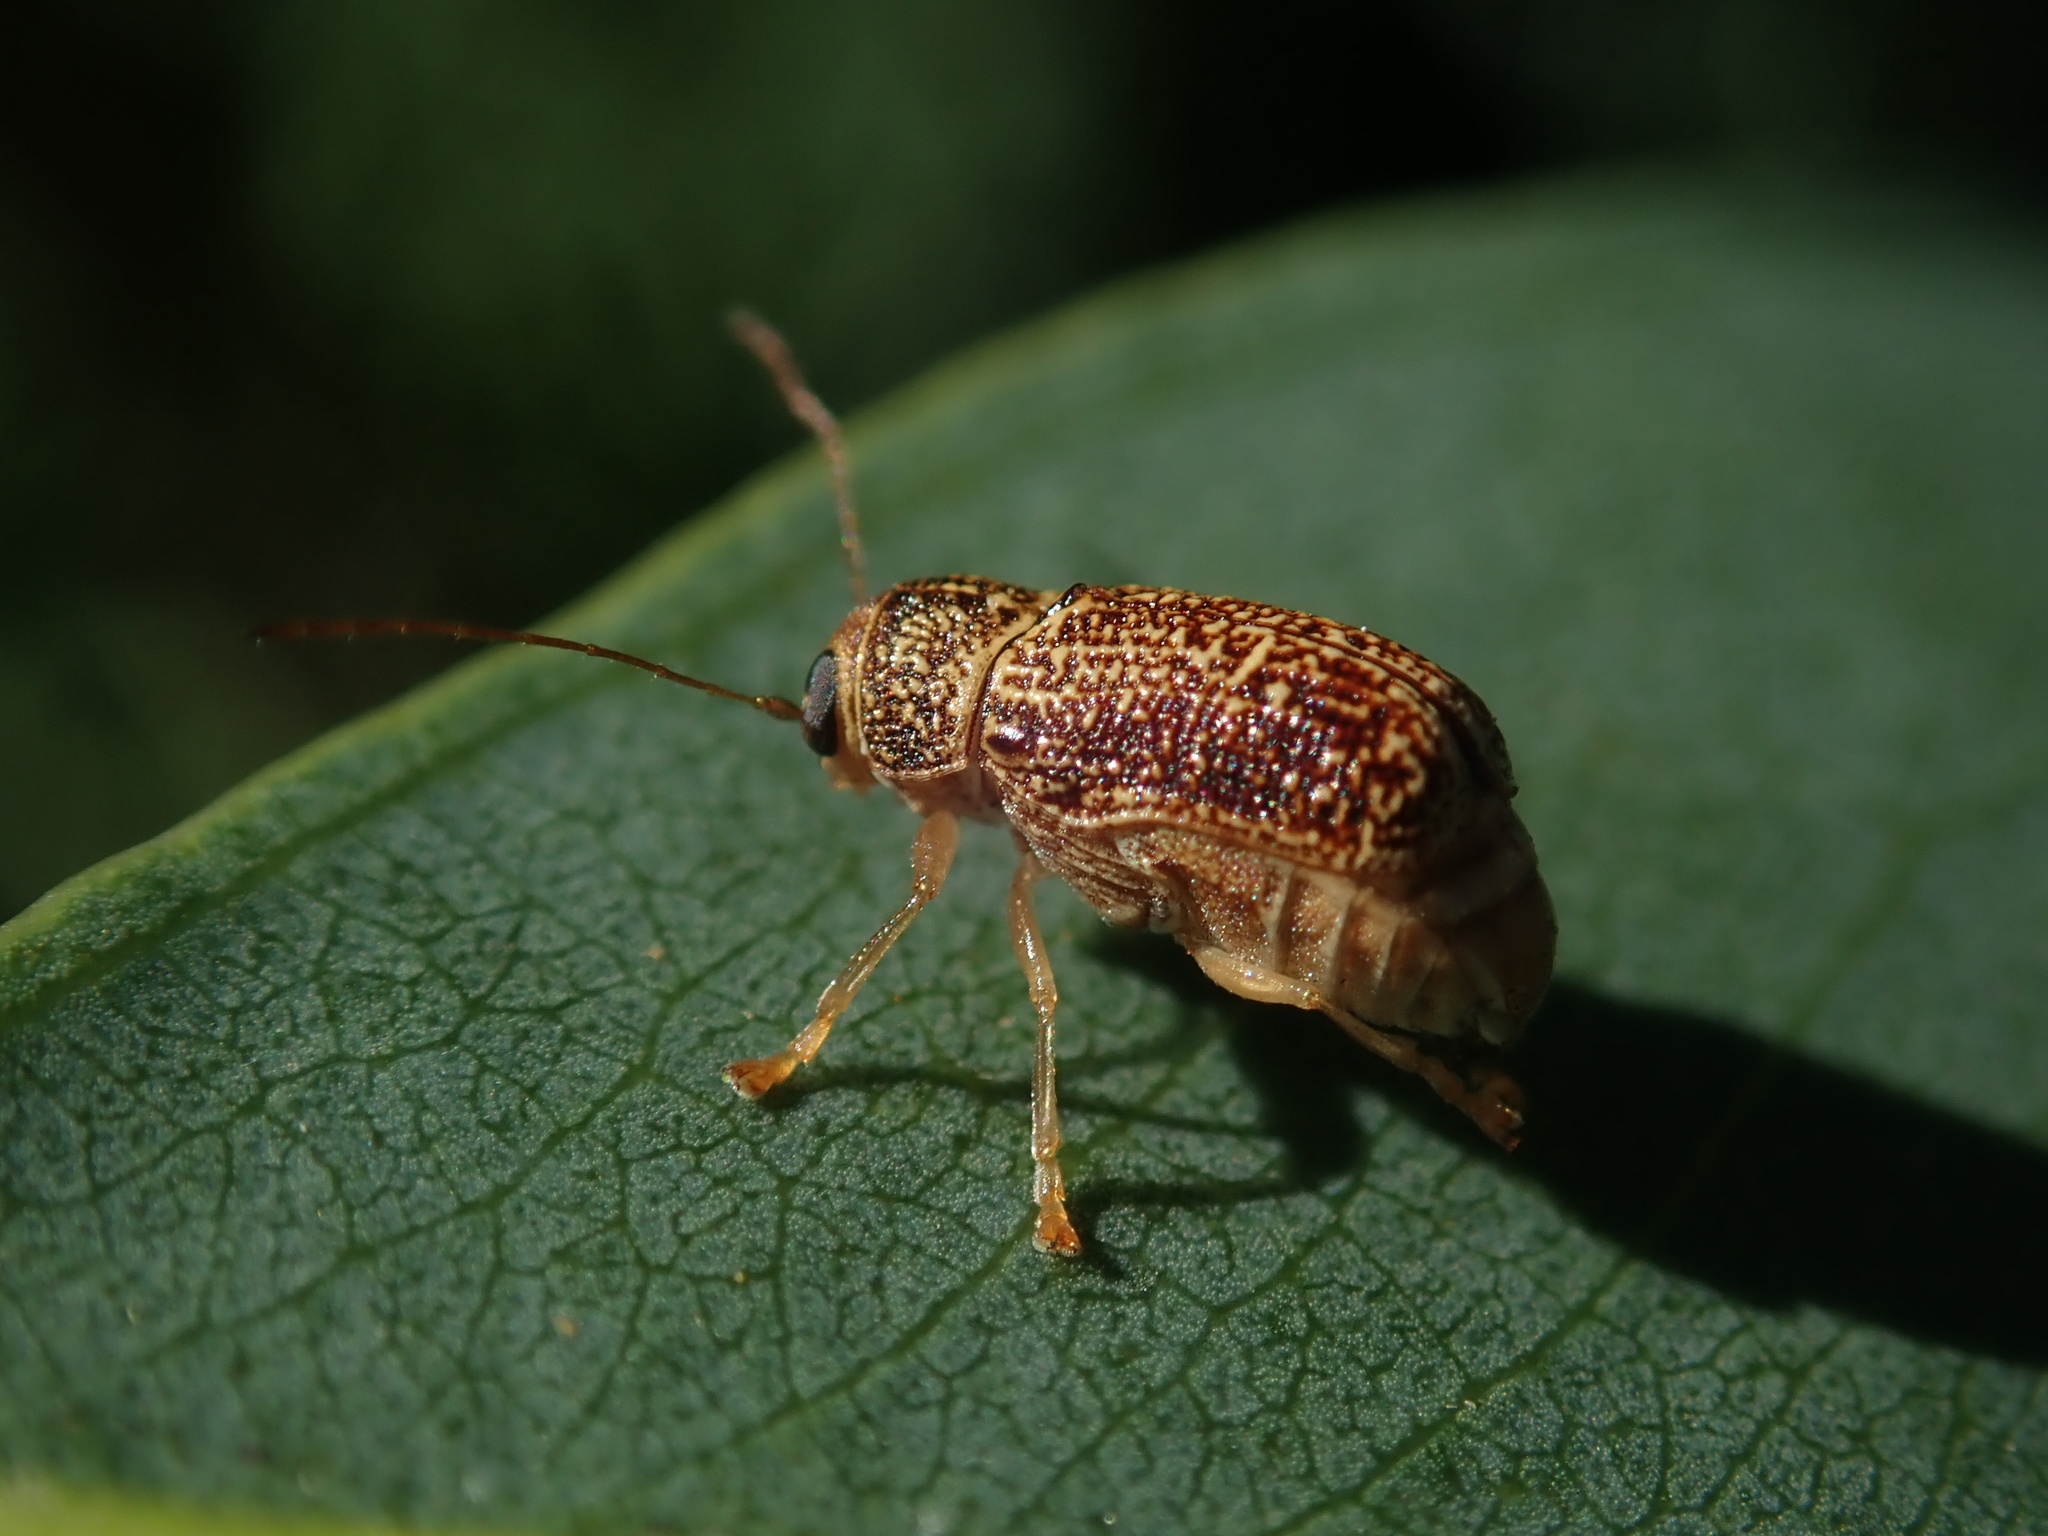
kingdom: Animalia
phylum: Arthropoda
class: Insecta
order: Coleoptera
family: Chrysomelidae
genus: Aporocera
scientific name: Aporocera
